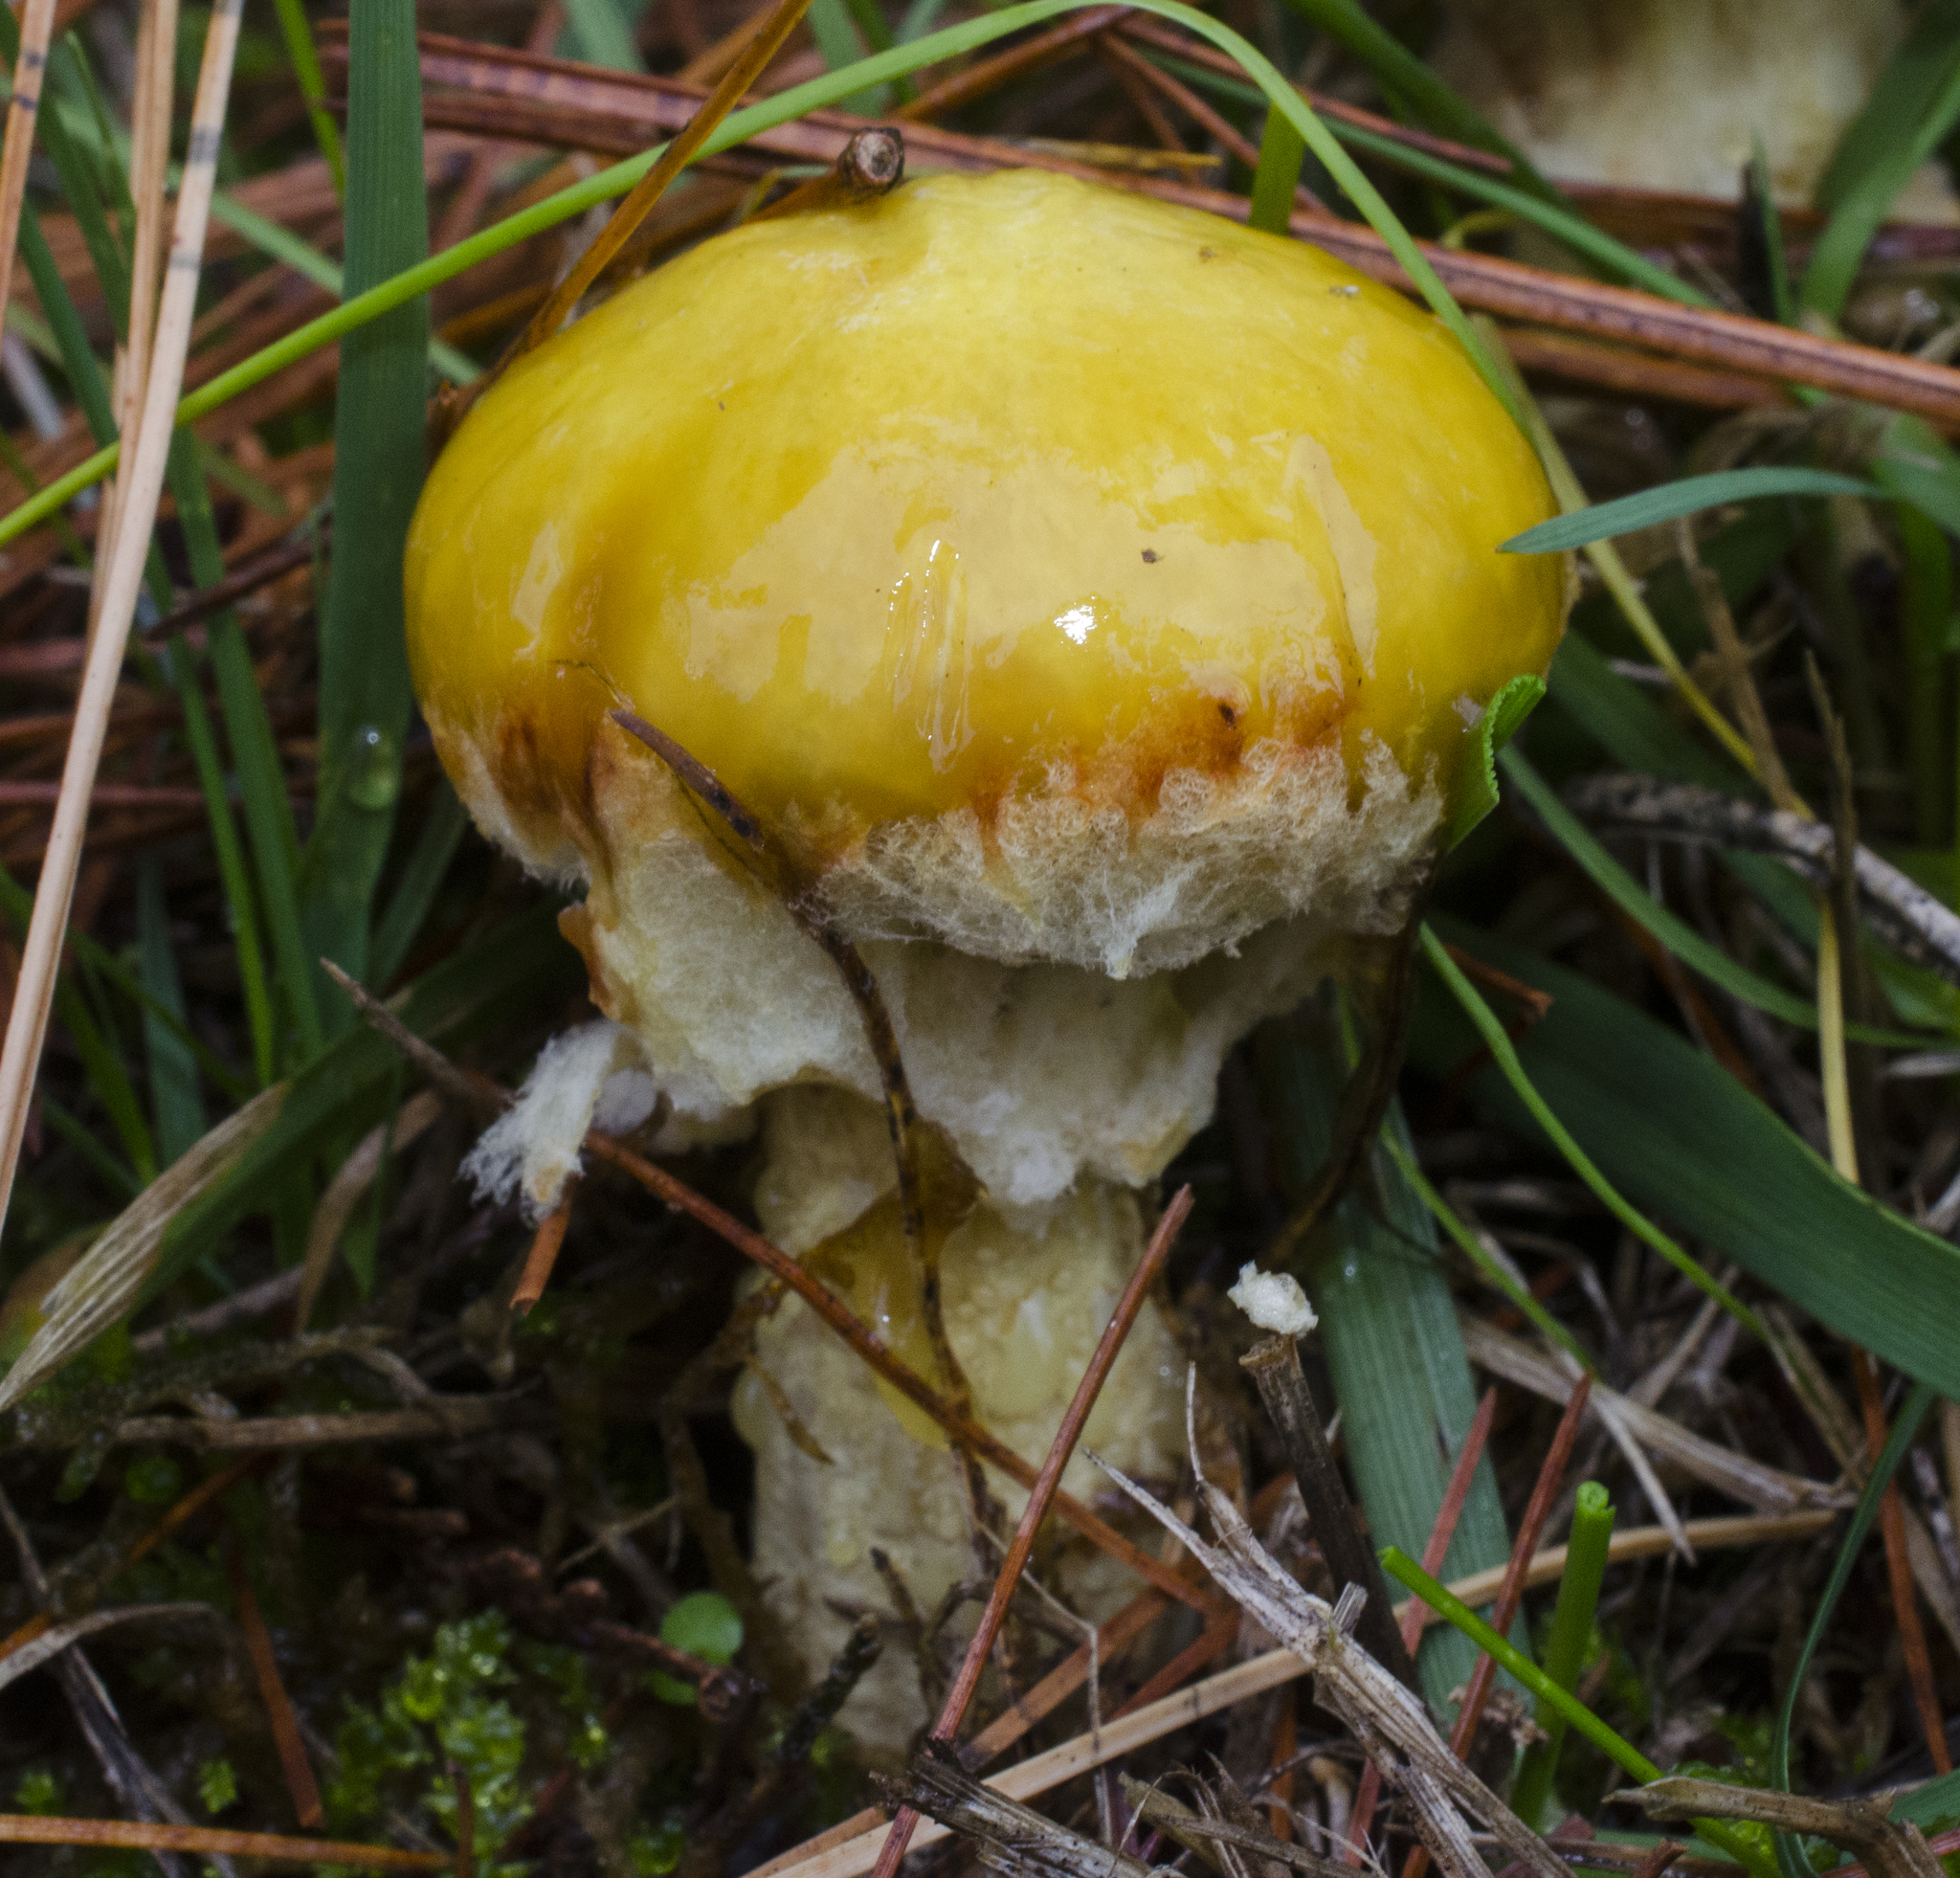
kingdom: Fungi
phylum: Basidiomycota
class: Agaricomycetes
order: Boletales
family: Suillaceae
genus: Suillus
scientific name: Suillus americanus
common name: Chicken fat mushroom
